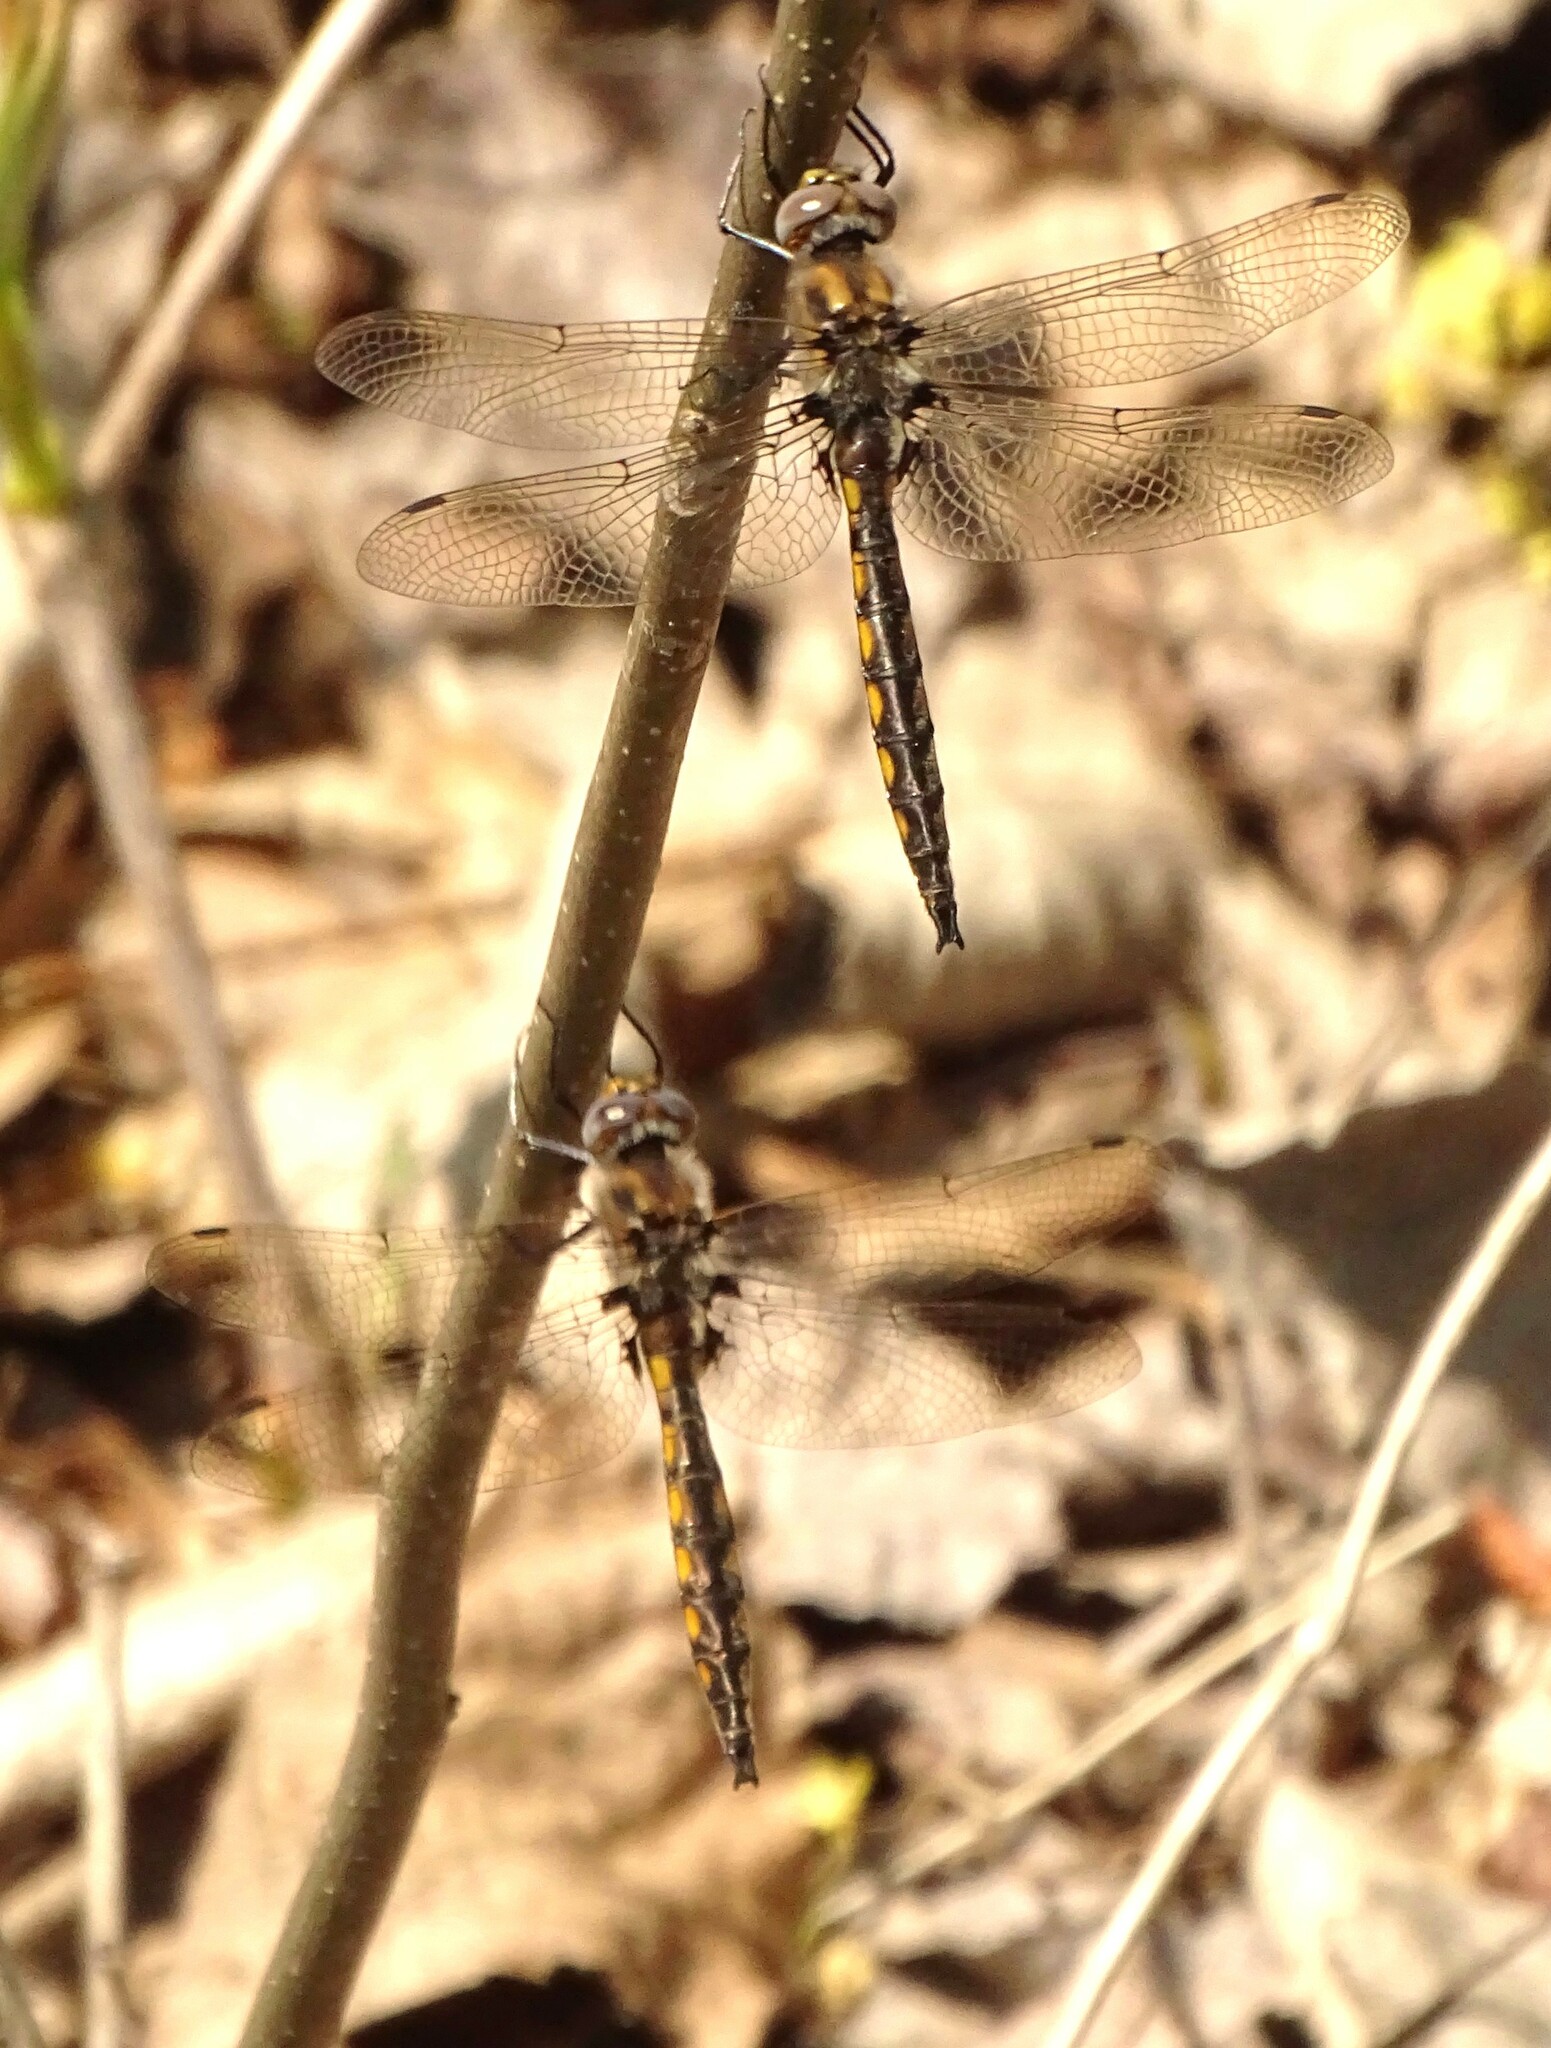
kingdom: Animalia
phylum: Arthropoda
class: Insecta
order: Odonata
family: Corduliidae
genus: Epitheca
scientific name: Epitheca canis
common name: Beaverpond baskettail
